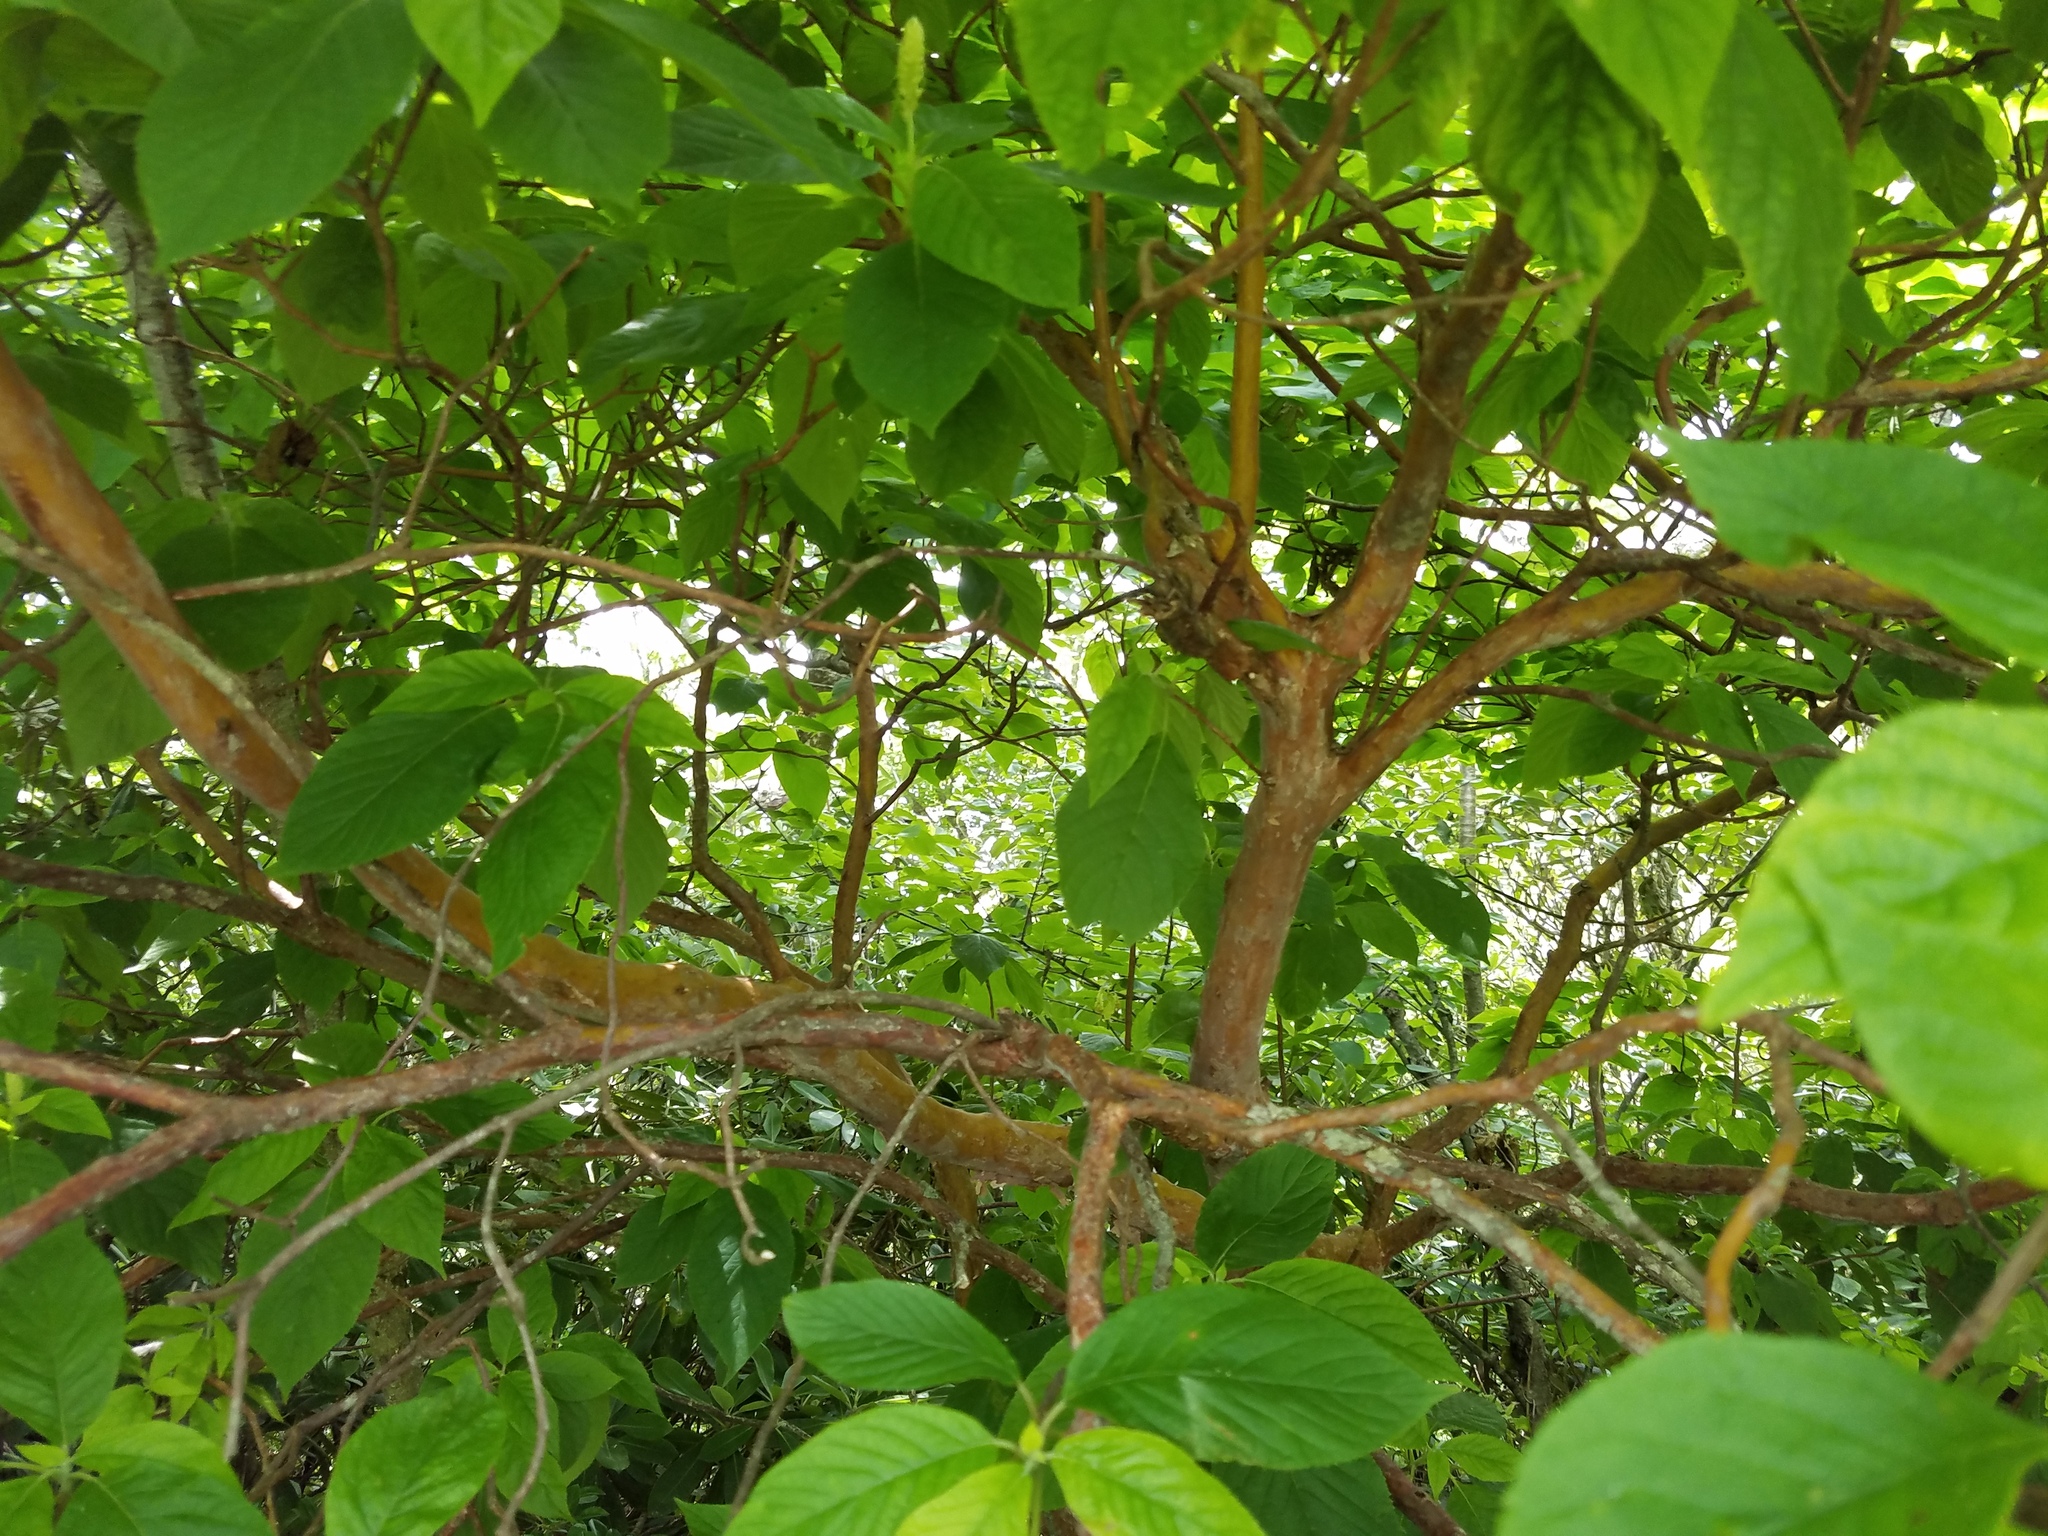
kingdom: Plantae
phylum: Tracheophyta
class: Magnoliopsida
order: Ericales
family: Clethraceae
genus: Clethra
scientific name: Clethra acuminata
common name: Mountain sweet pepperbush
